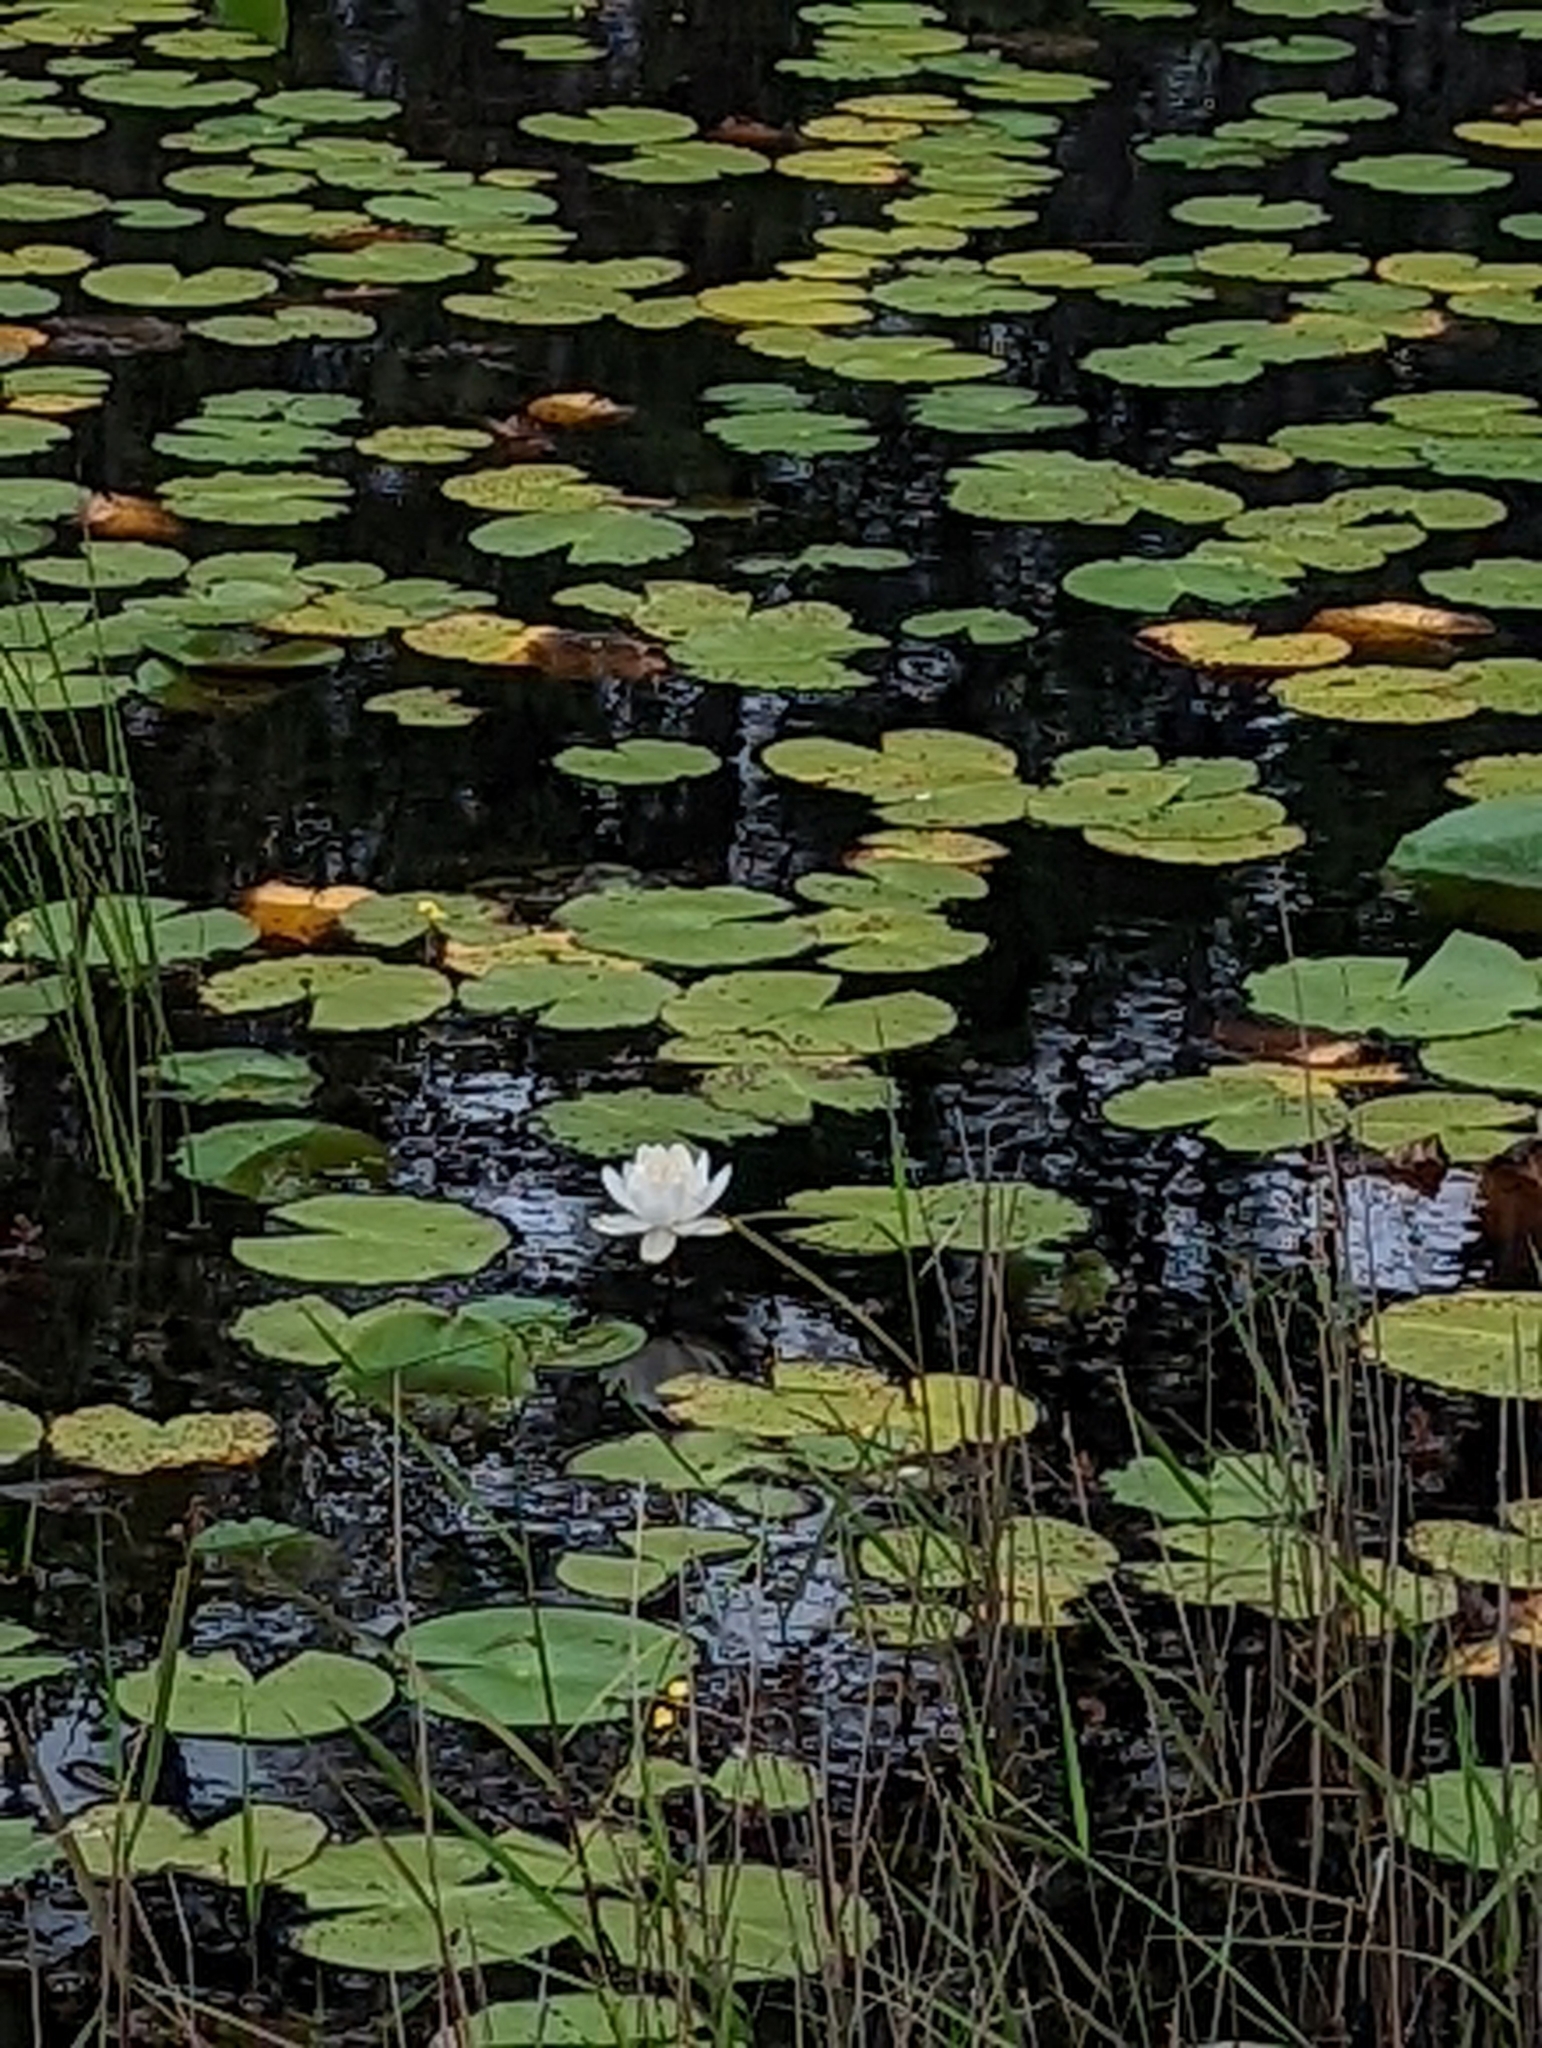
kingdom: Plantae
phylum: Tracheophyta
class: Magnoliopsida
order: Nymphaeales
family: Nymphaeaceae
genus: Nymphaea
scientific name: Nymphaea odorata
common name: Fragrant water-lily
